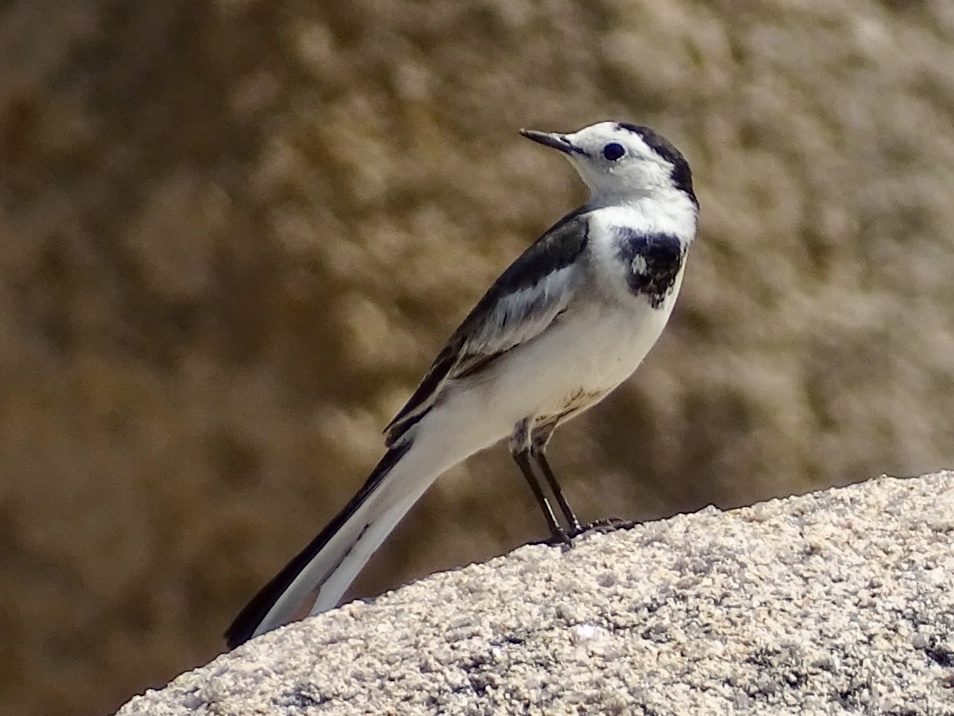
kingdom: Animalia
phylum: Chordata
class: Aves
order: Passeriformes
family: Motacillidae
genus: Motacilla
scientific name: Motacilla alba
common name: White wagtail
